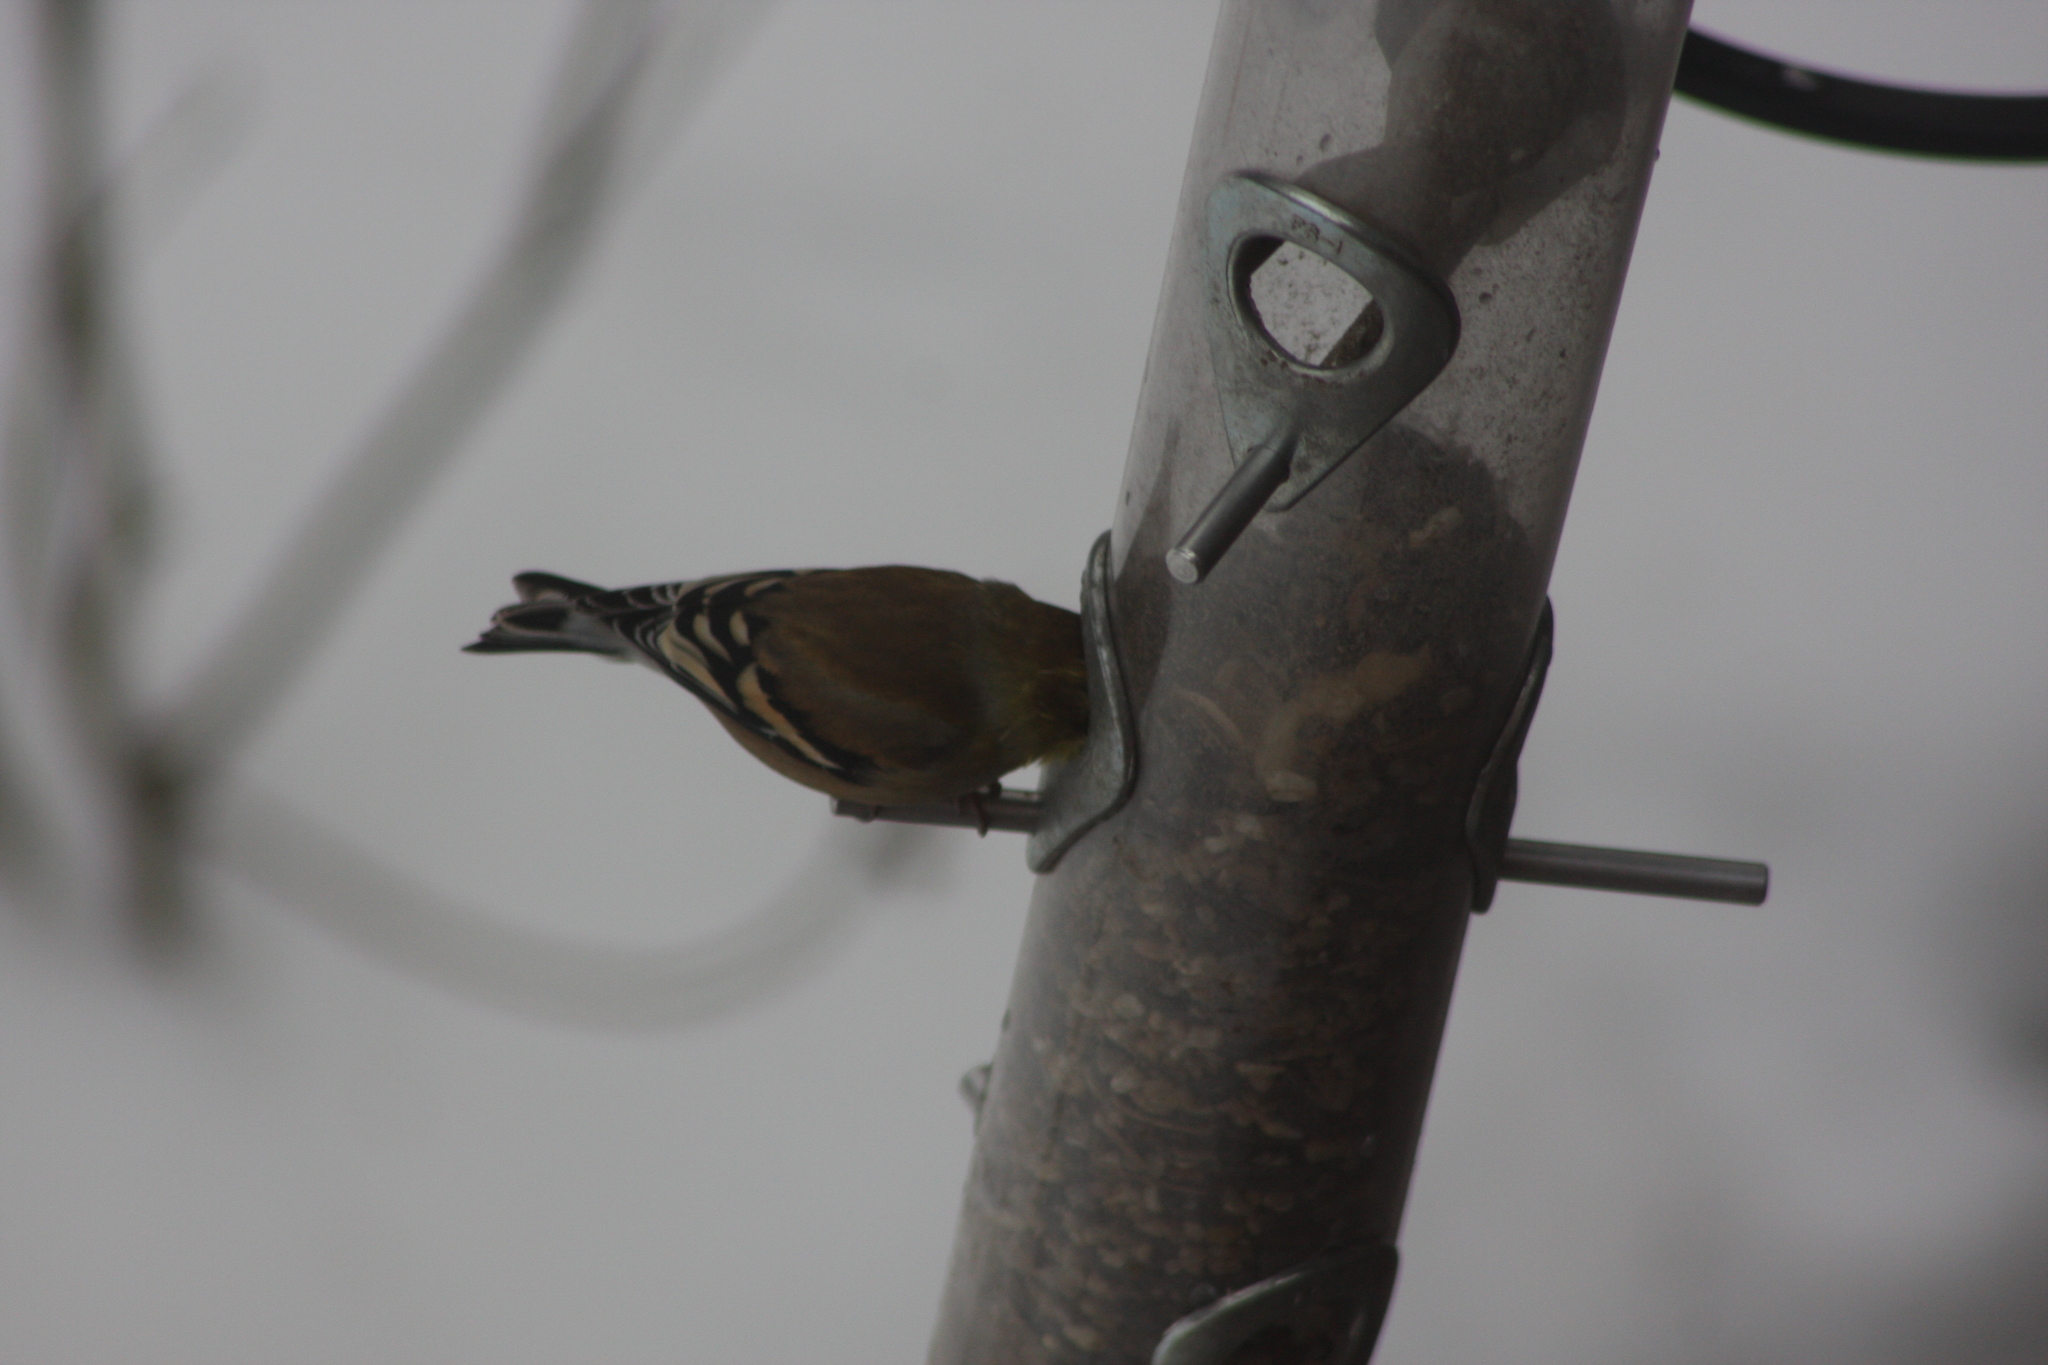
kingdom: Animalia
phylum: Chordata
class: Aves
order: Passeriformes
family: Fringillidae
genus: Spinus
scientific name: Spinus tristis
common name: American goldfinch
